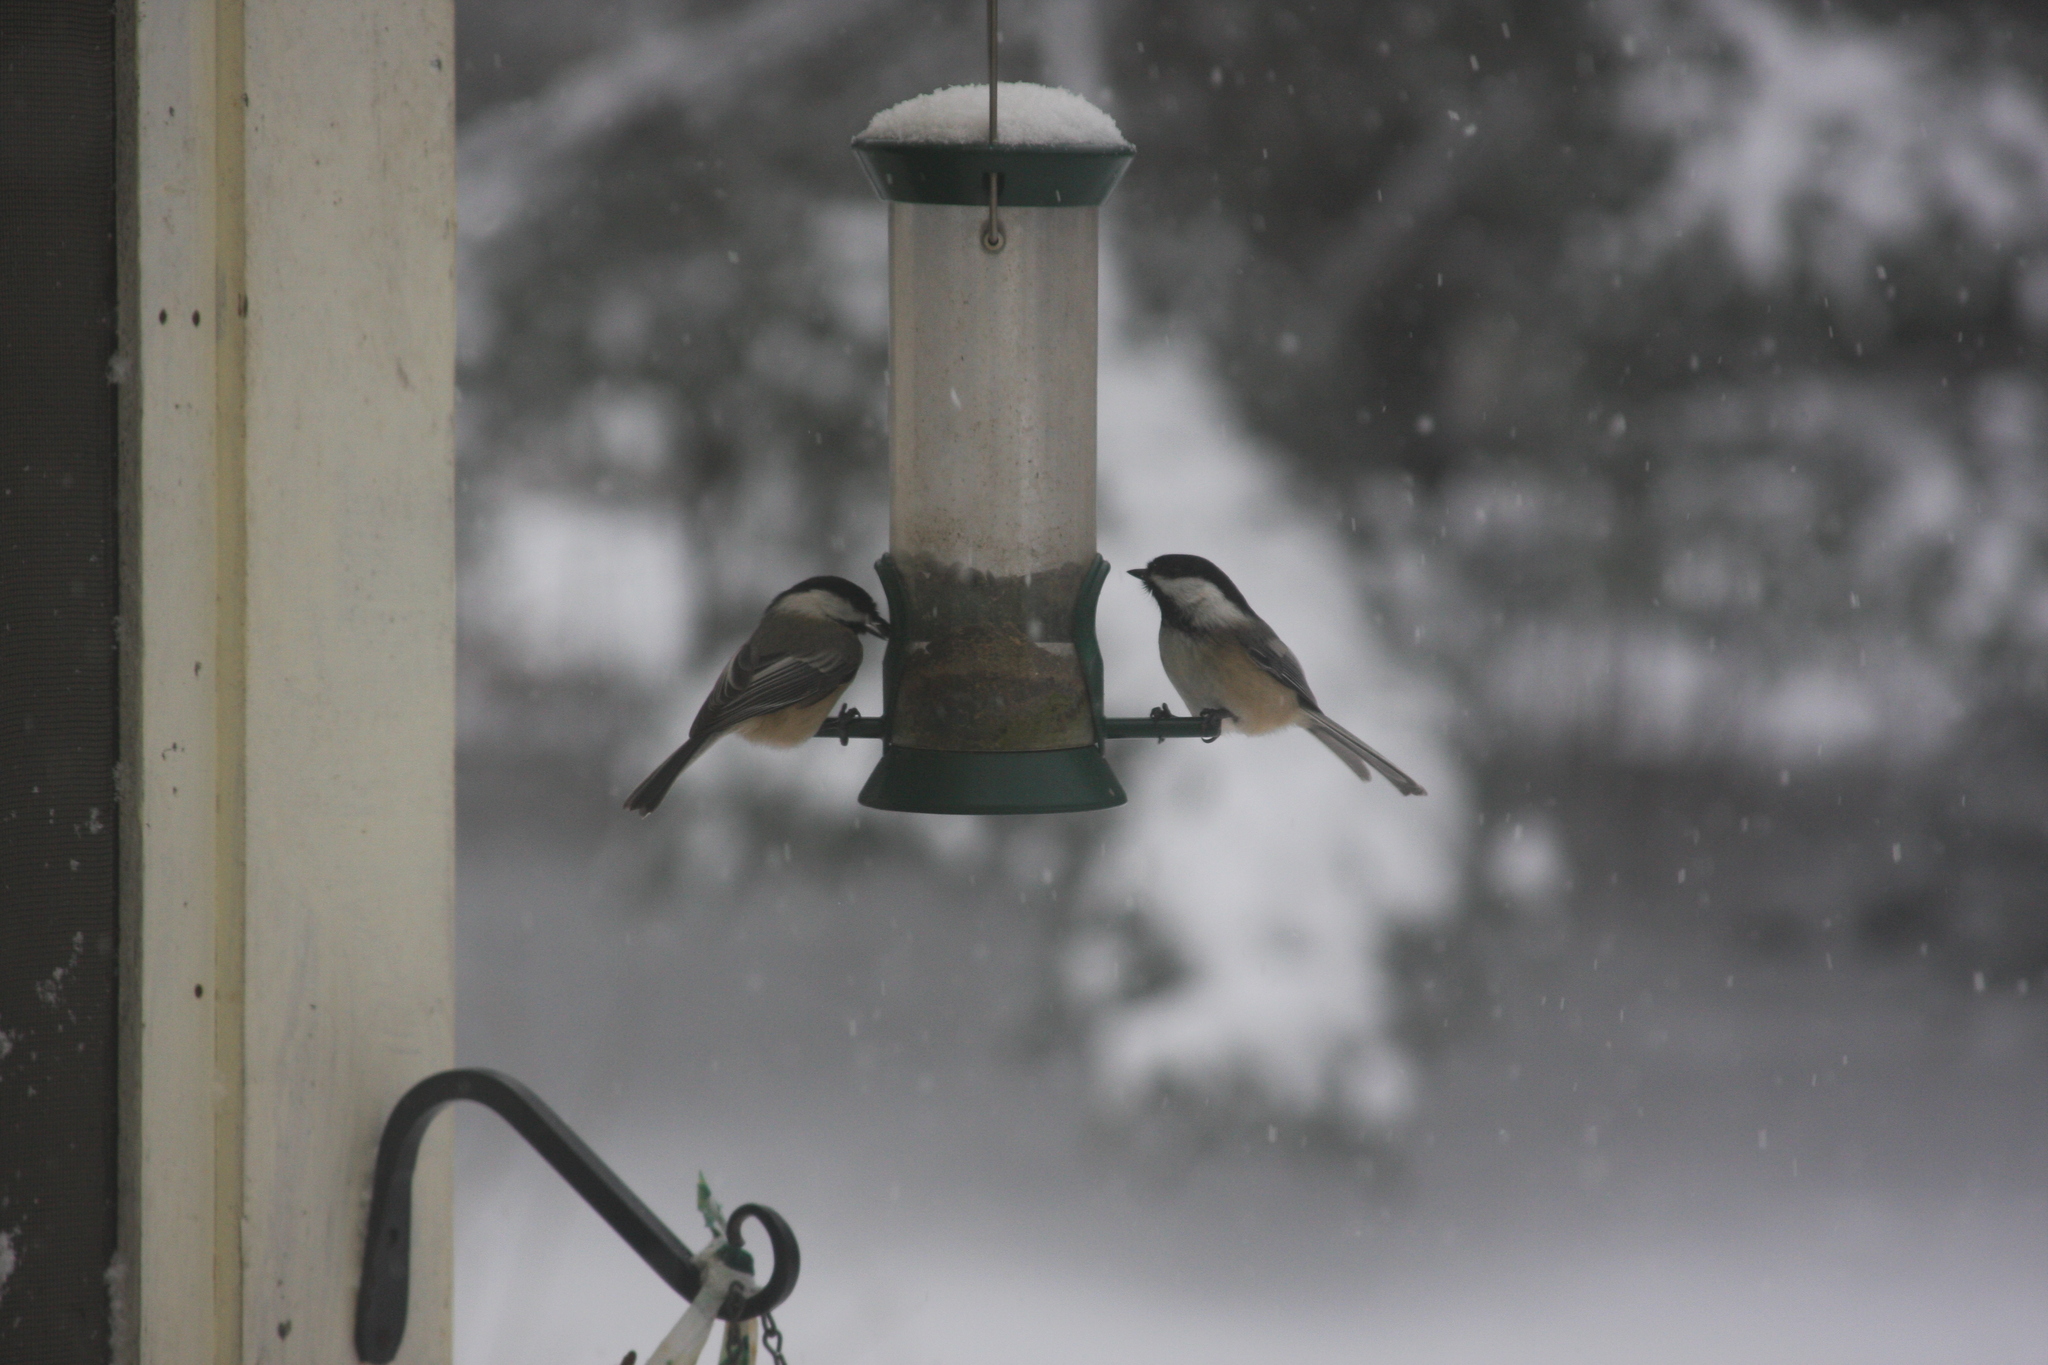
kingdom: Animalia
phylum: Chordata
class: Aves
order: Passeriformes
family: Paridae
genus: Poecile
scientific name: Poecile atricapillus
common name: Black-capped chickadee
